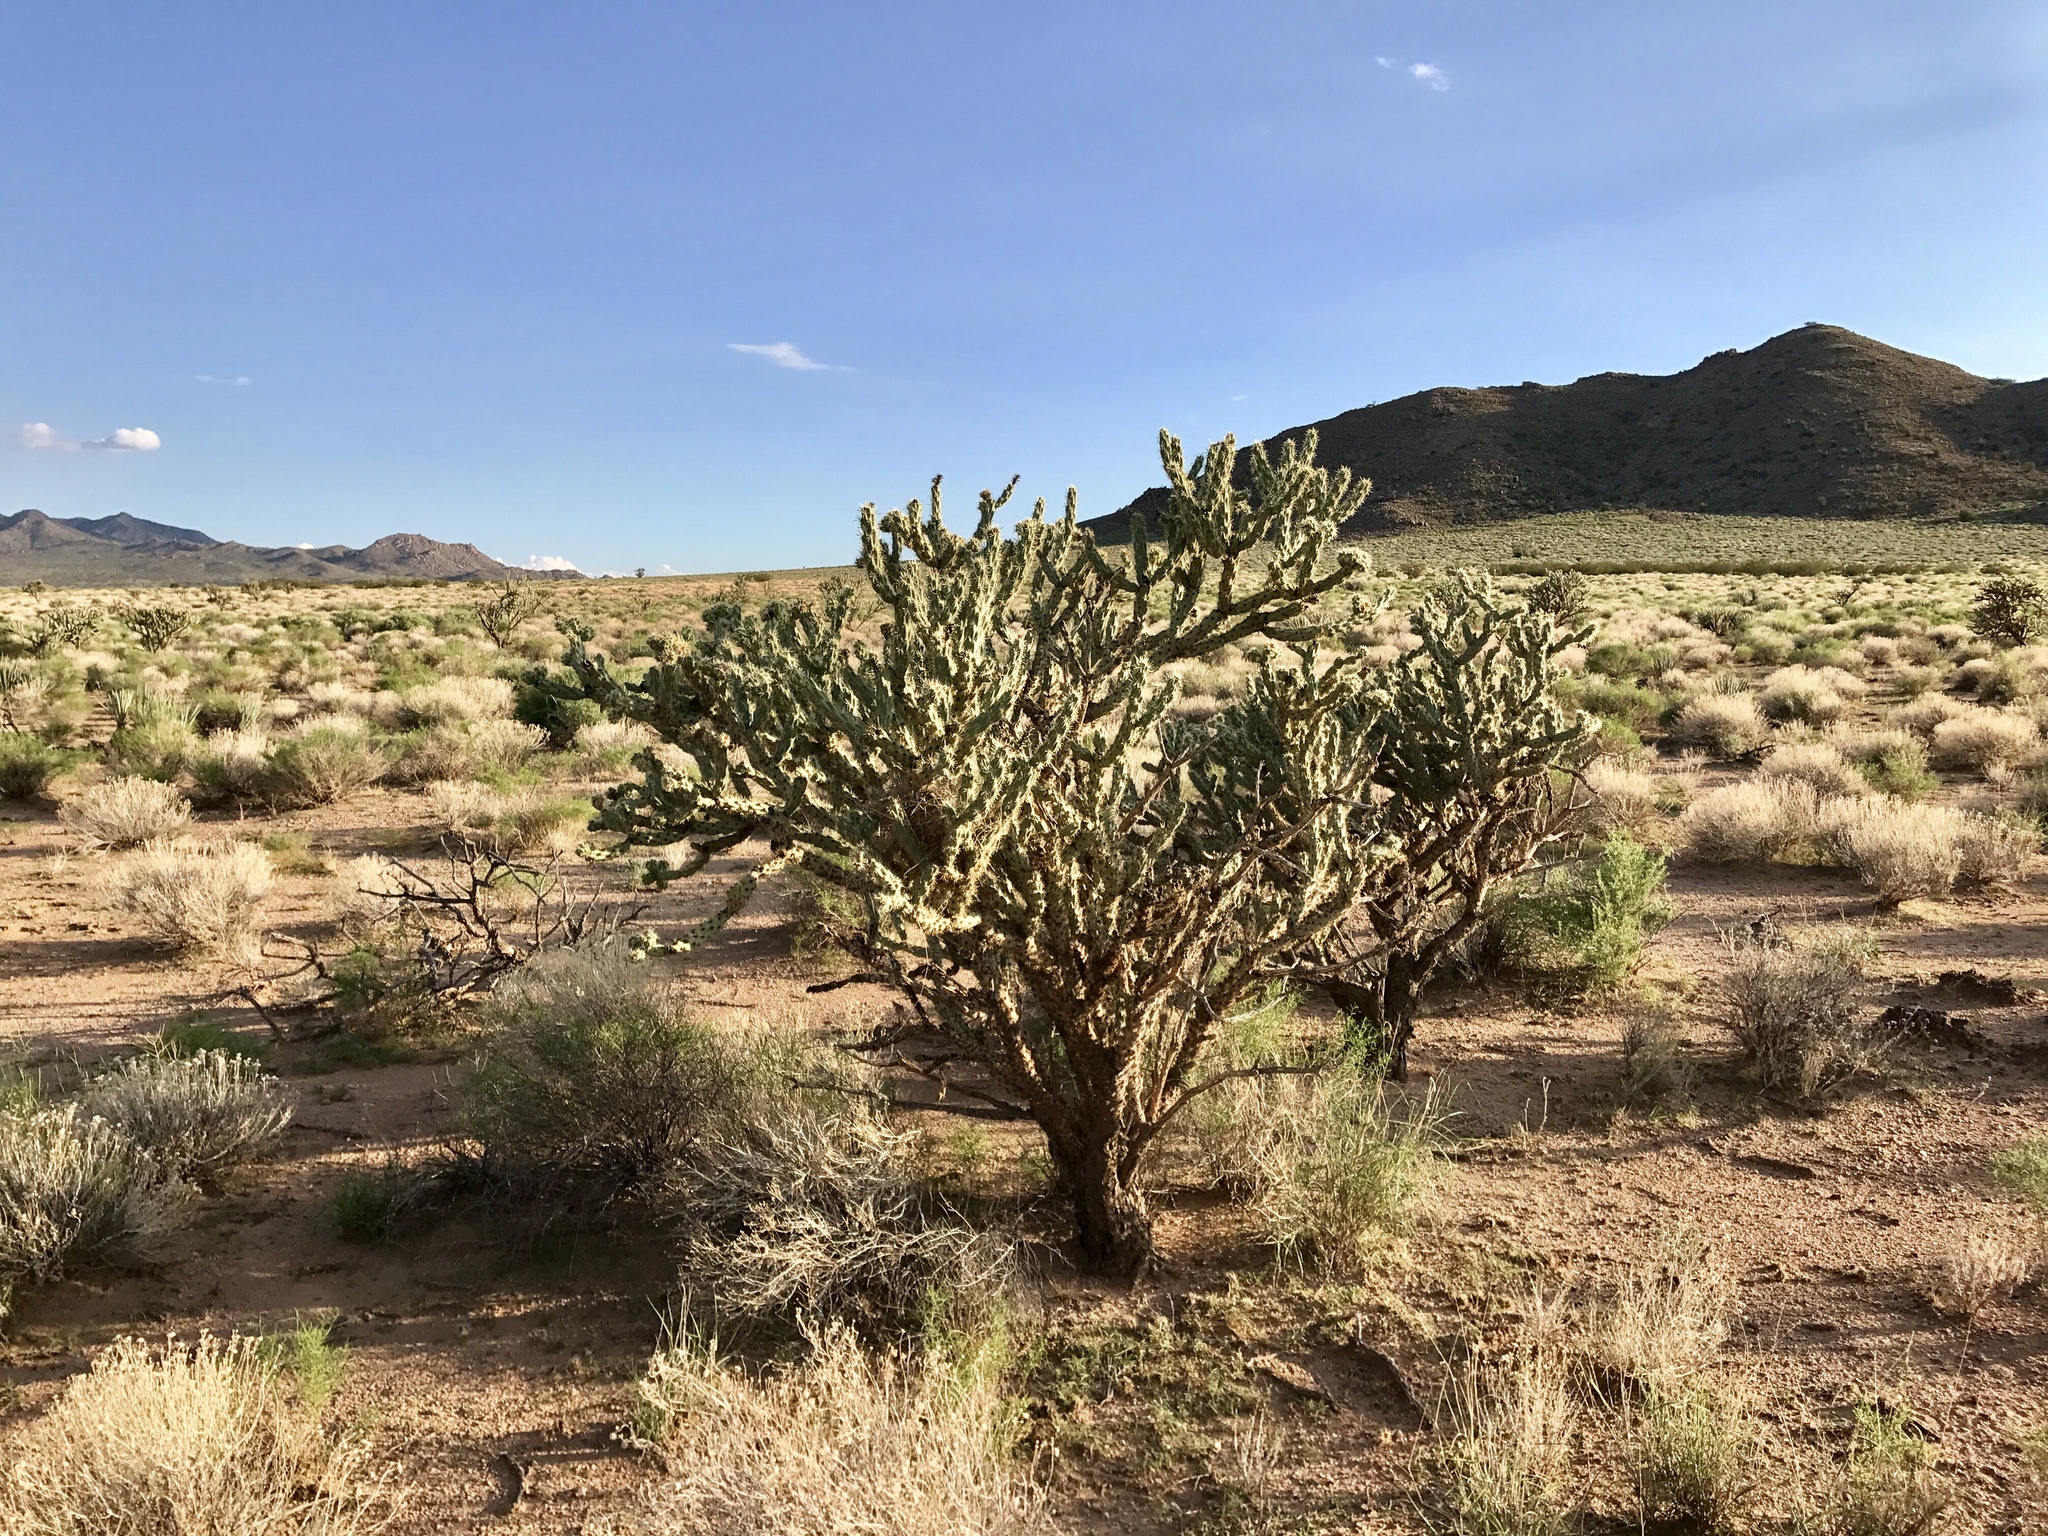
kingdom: Plantae
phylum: Tracheophyta
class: Magnoliopsida
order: Caryophyllales
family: Cactaceae
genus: Cylindropuntia
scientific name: Cylindropuntia acanthocarpa
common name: Buckhorn cholla
